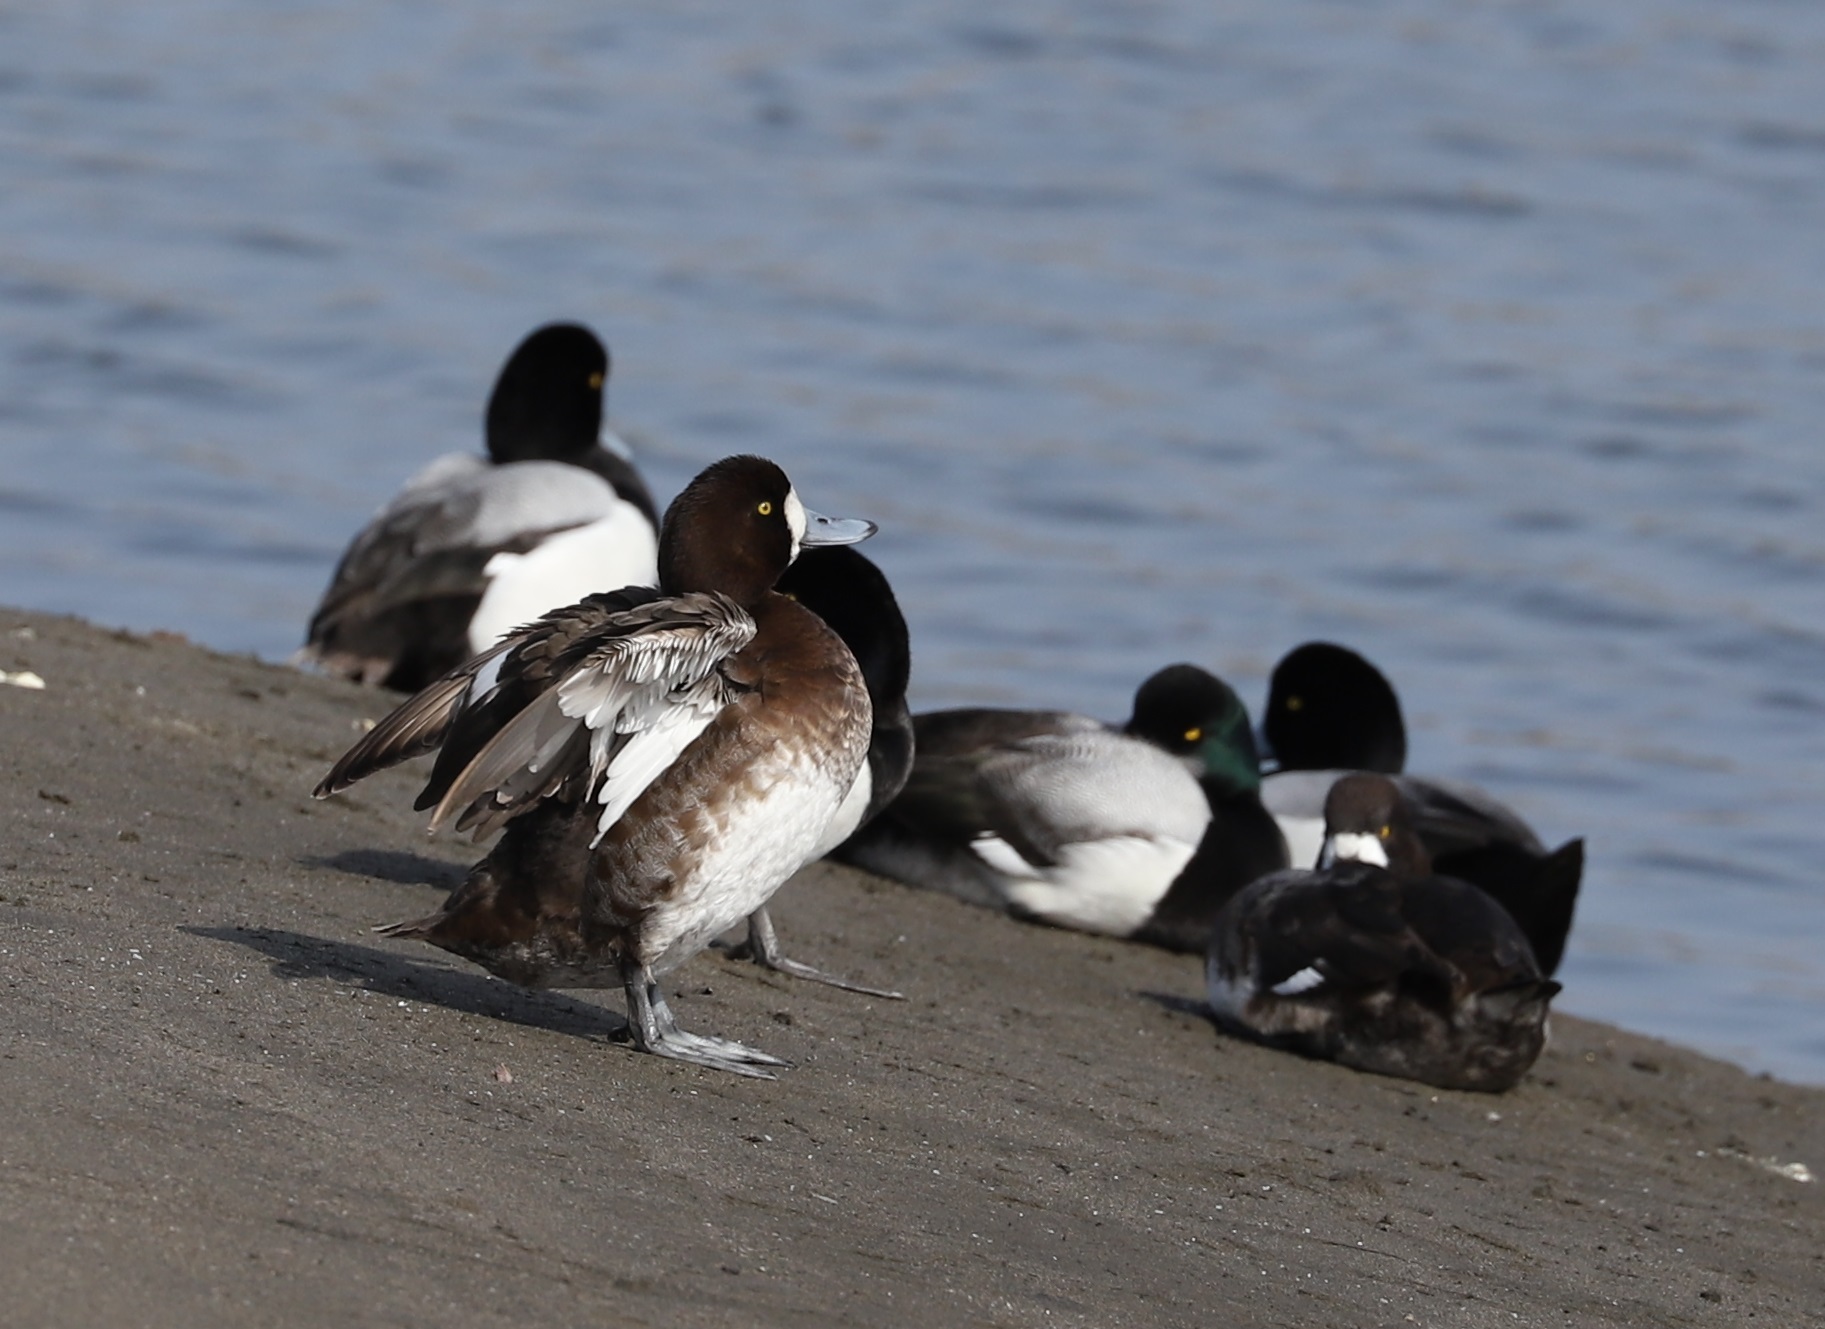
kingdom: Animalia
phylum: Chordata
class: Aves
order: Anseriformes
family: Anatidae
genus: Aythya
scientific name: Aythya marila
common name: Greater scaup
